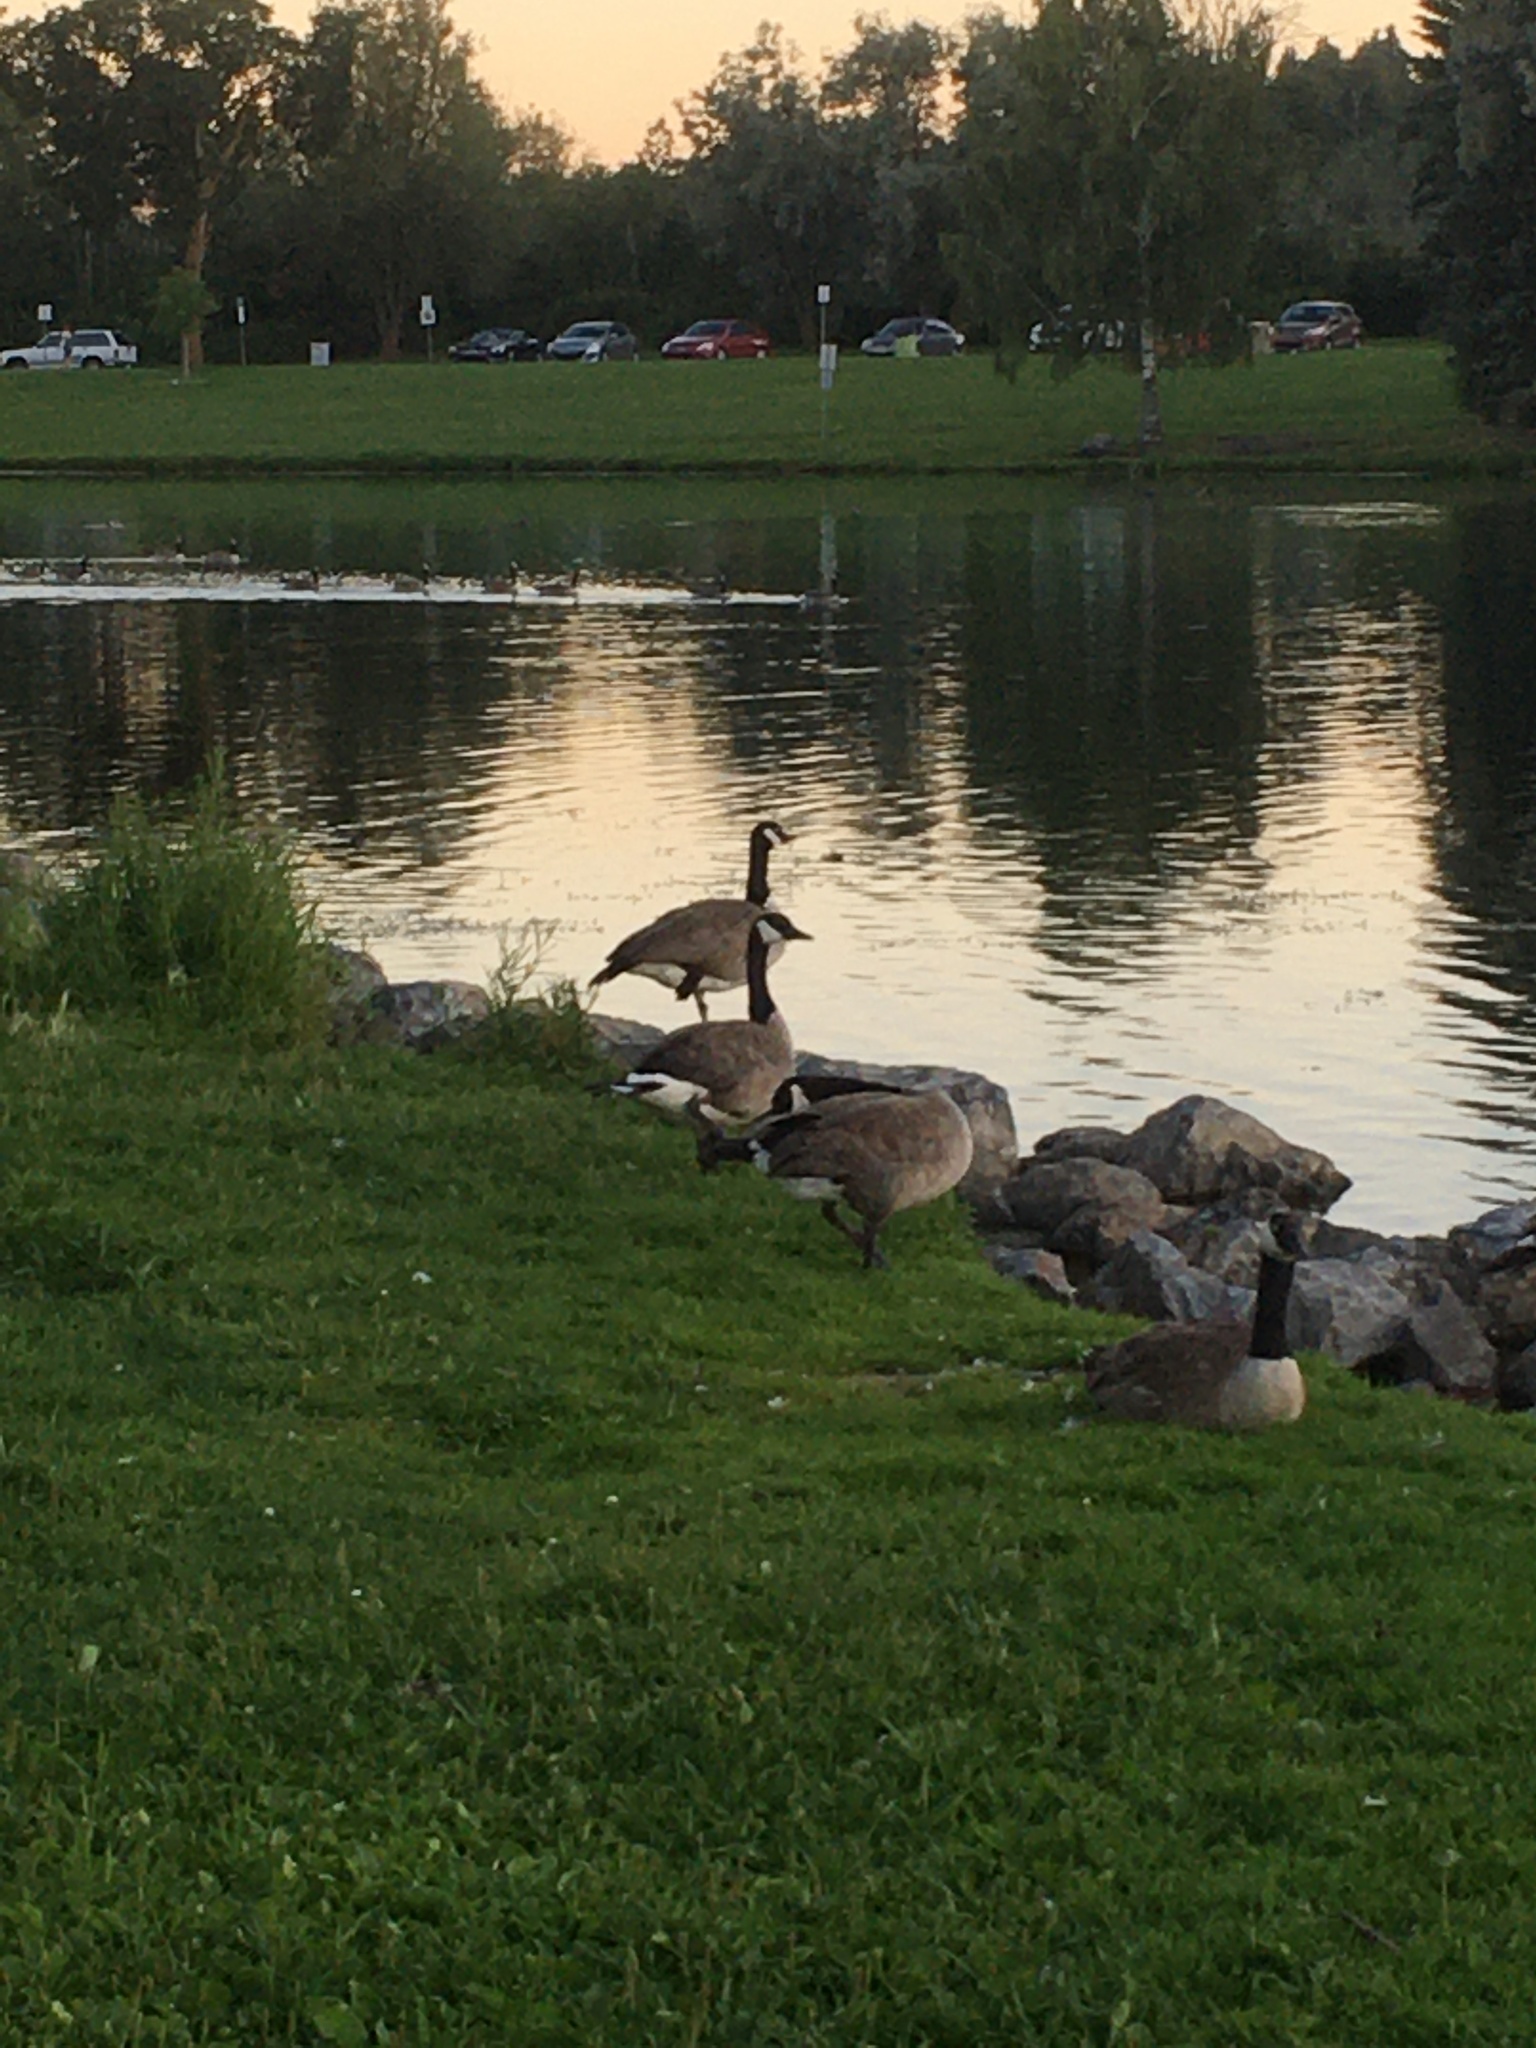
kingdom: Animalia
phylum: Chordata
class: Aves
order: Anseriformes
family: Anatidae
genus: Branta
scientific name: Branta canadensis
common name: Canada goose
